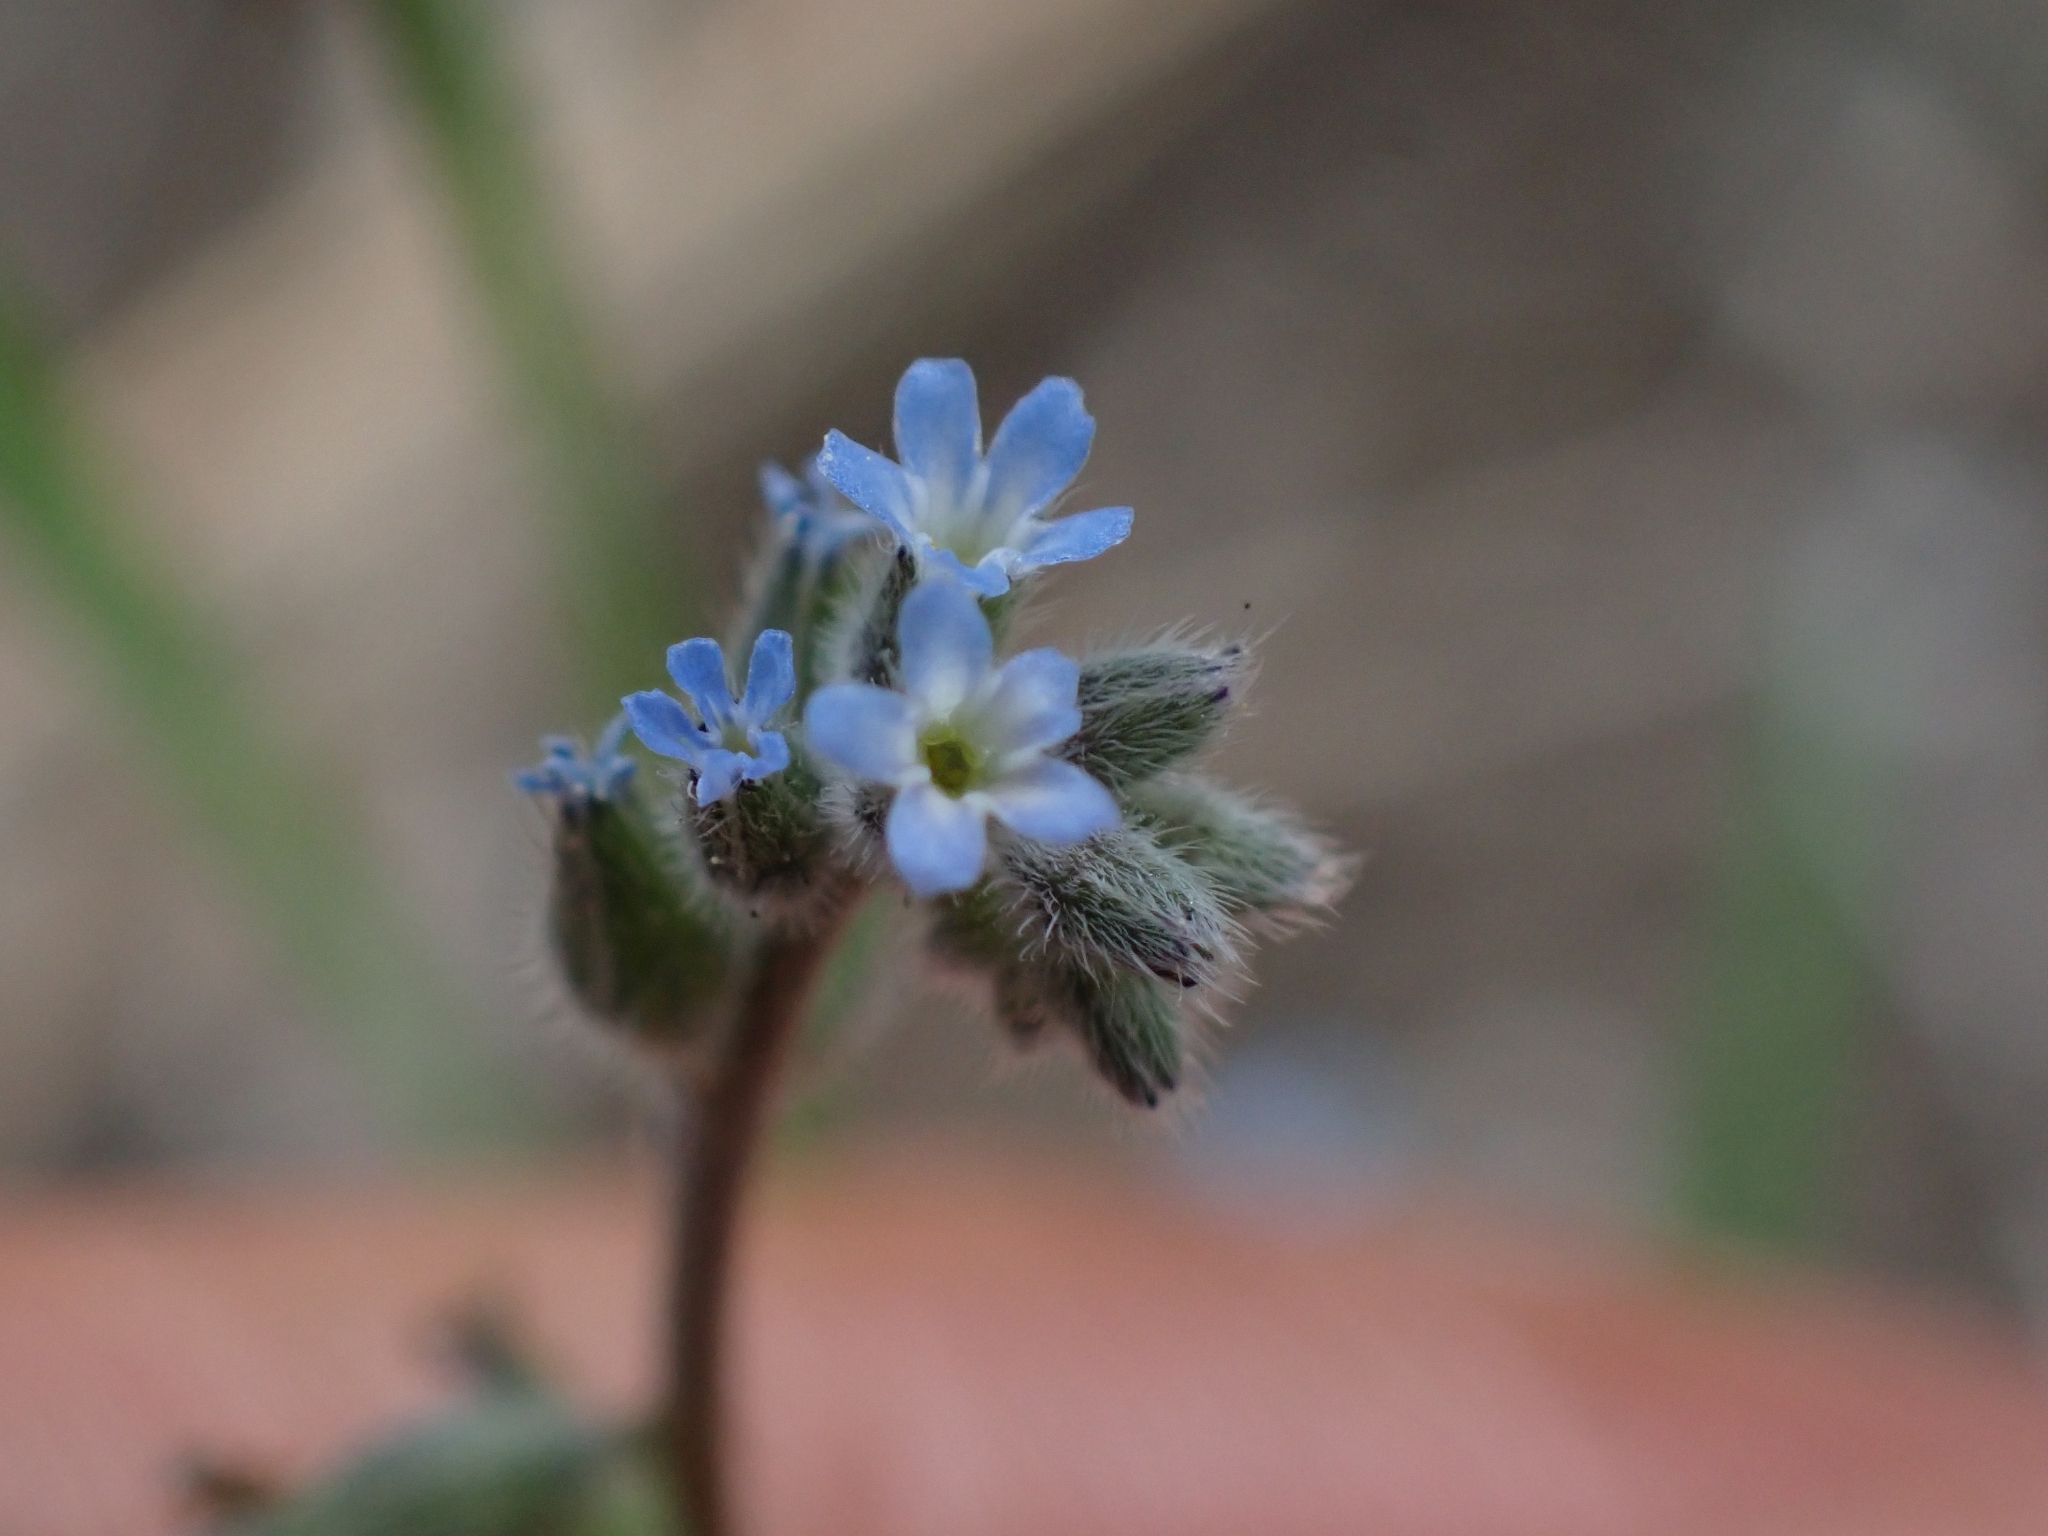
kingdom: Plantae
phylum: Tracheophyta
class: Magnoliopsida
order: Boraginales
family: Boraginaceae
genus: Myosotis
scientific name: Myosotis stricta
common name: Strict forget-me-not
